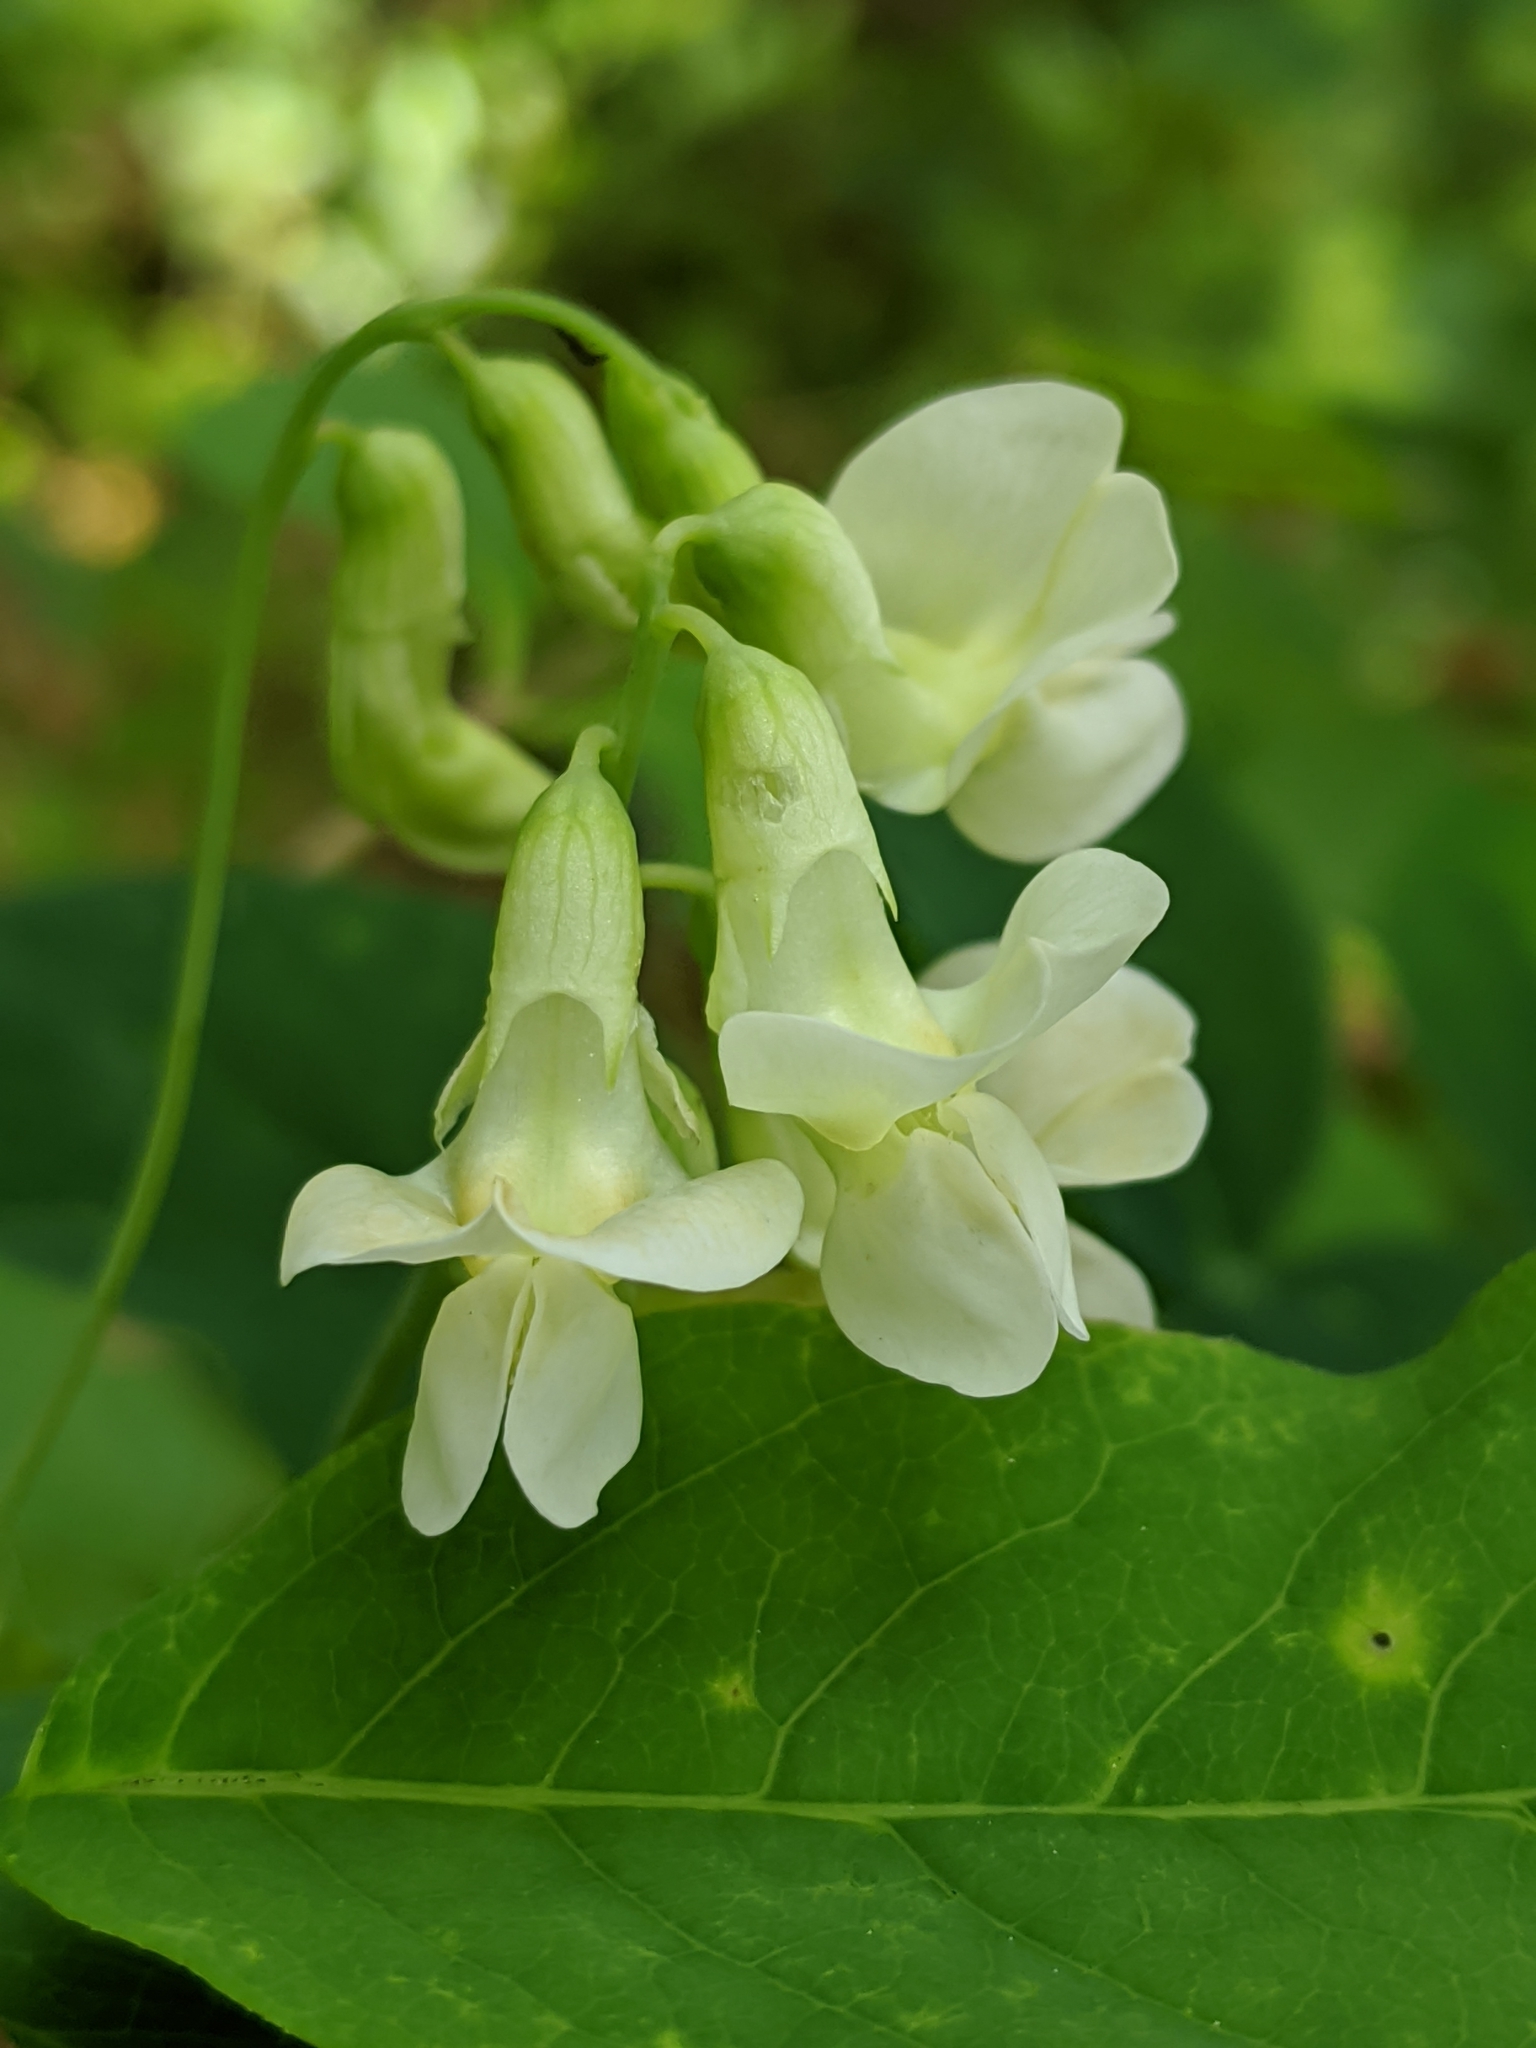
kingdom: Plantae
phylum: Tracheophyta
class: Magnoliopsida
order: Fabales
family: Fabaceae
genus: Lathyrus
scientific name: Lathyrus ochroleucus
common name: Pale vetchling
